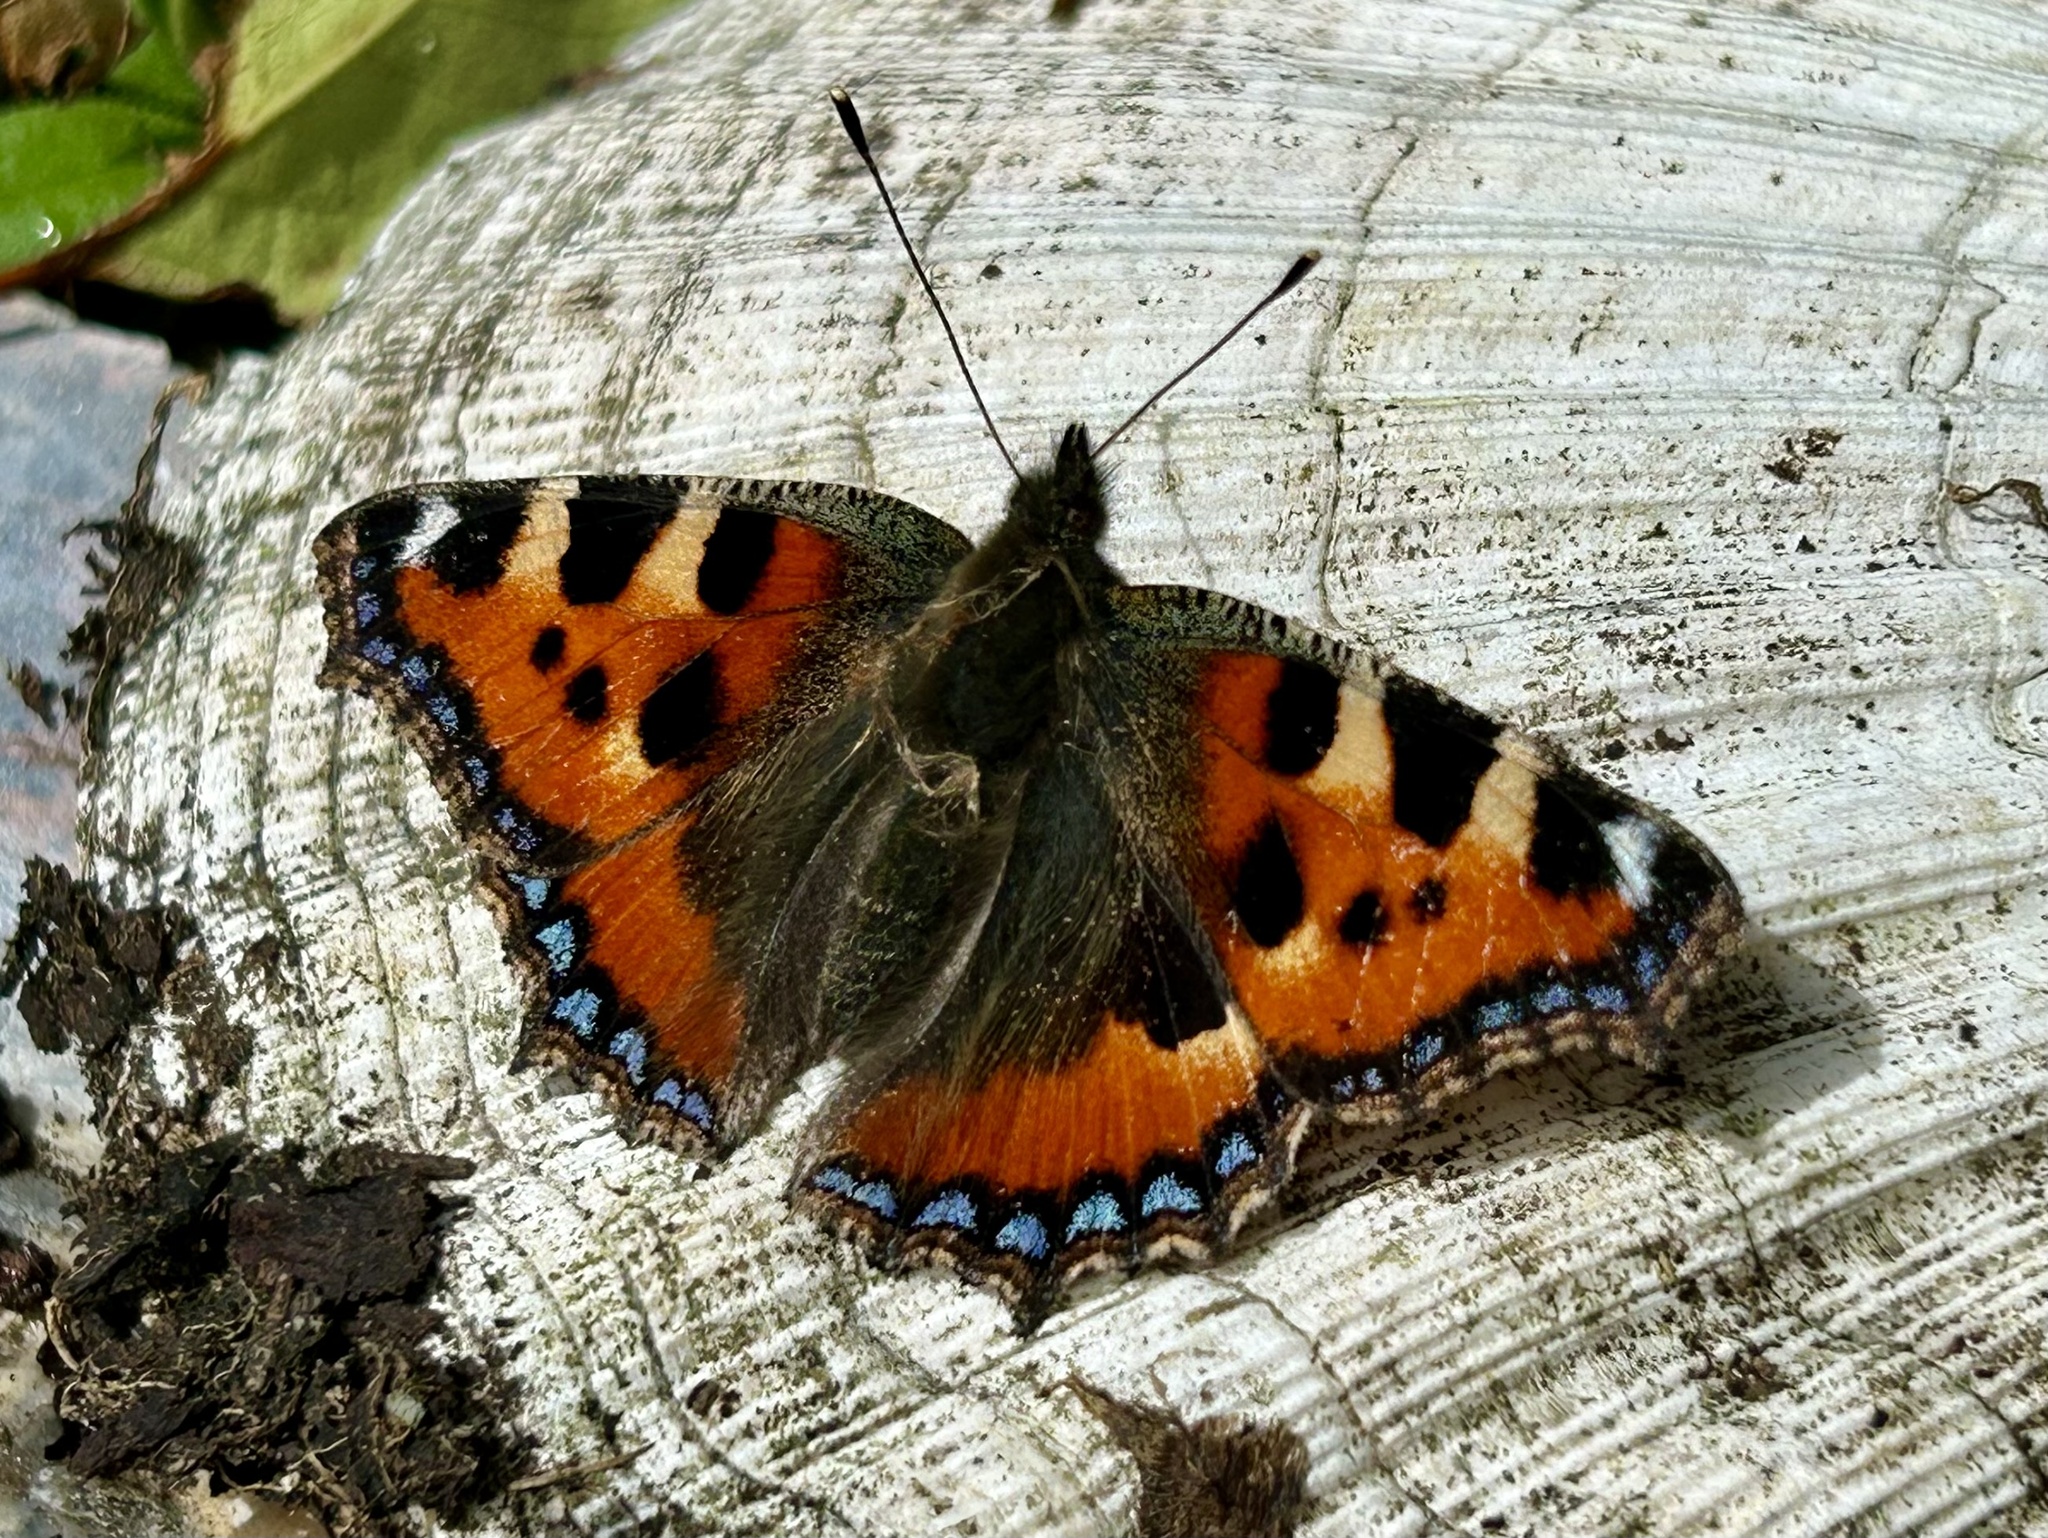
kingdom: Animalia
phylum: Arthropoda
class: Insecta
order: Lepidoptera
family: Nymphalidae
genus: Aglais
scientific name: Aglais urticae
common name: Small tortoiseshell
